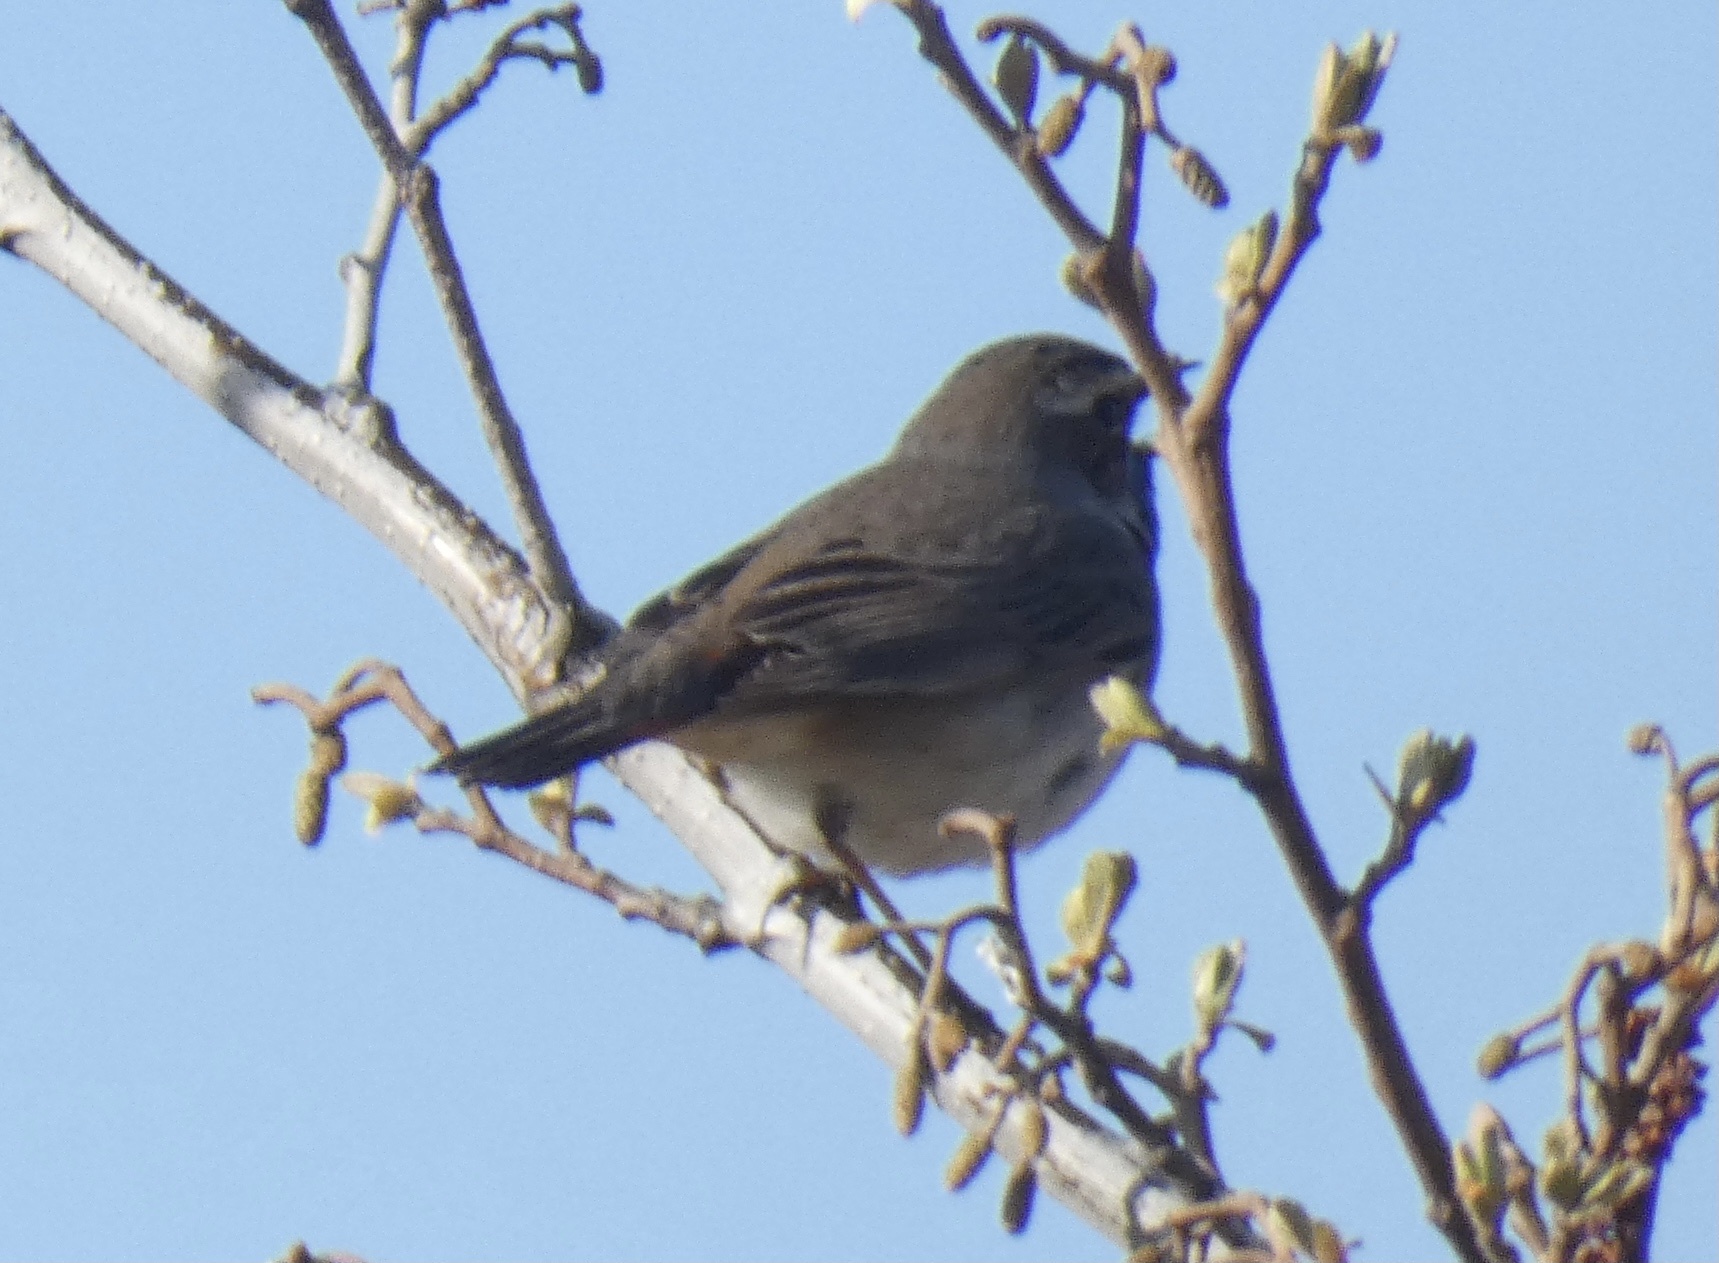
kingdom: Animalia
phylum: Chordata
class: Aves
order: Passeriformes
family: Muscicapidae
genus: Luscinia
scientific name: Luscinia svecica
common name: Bluethroat
